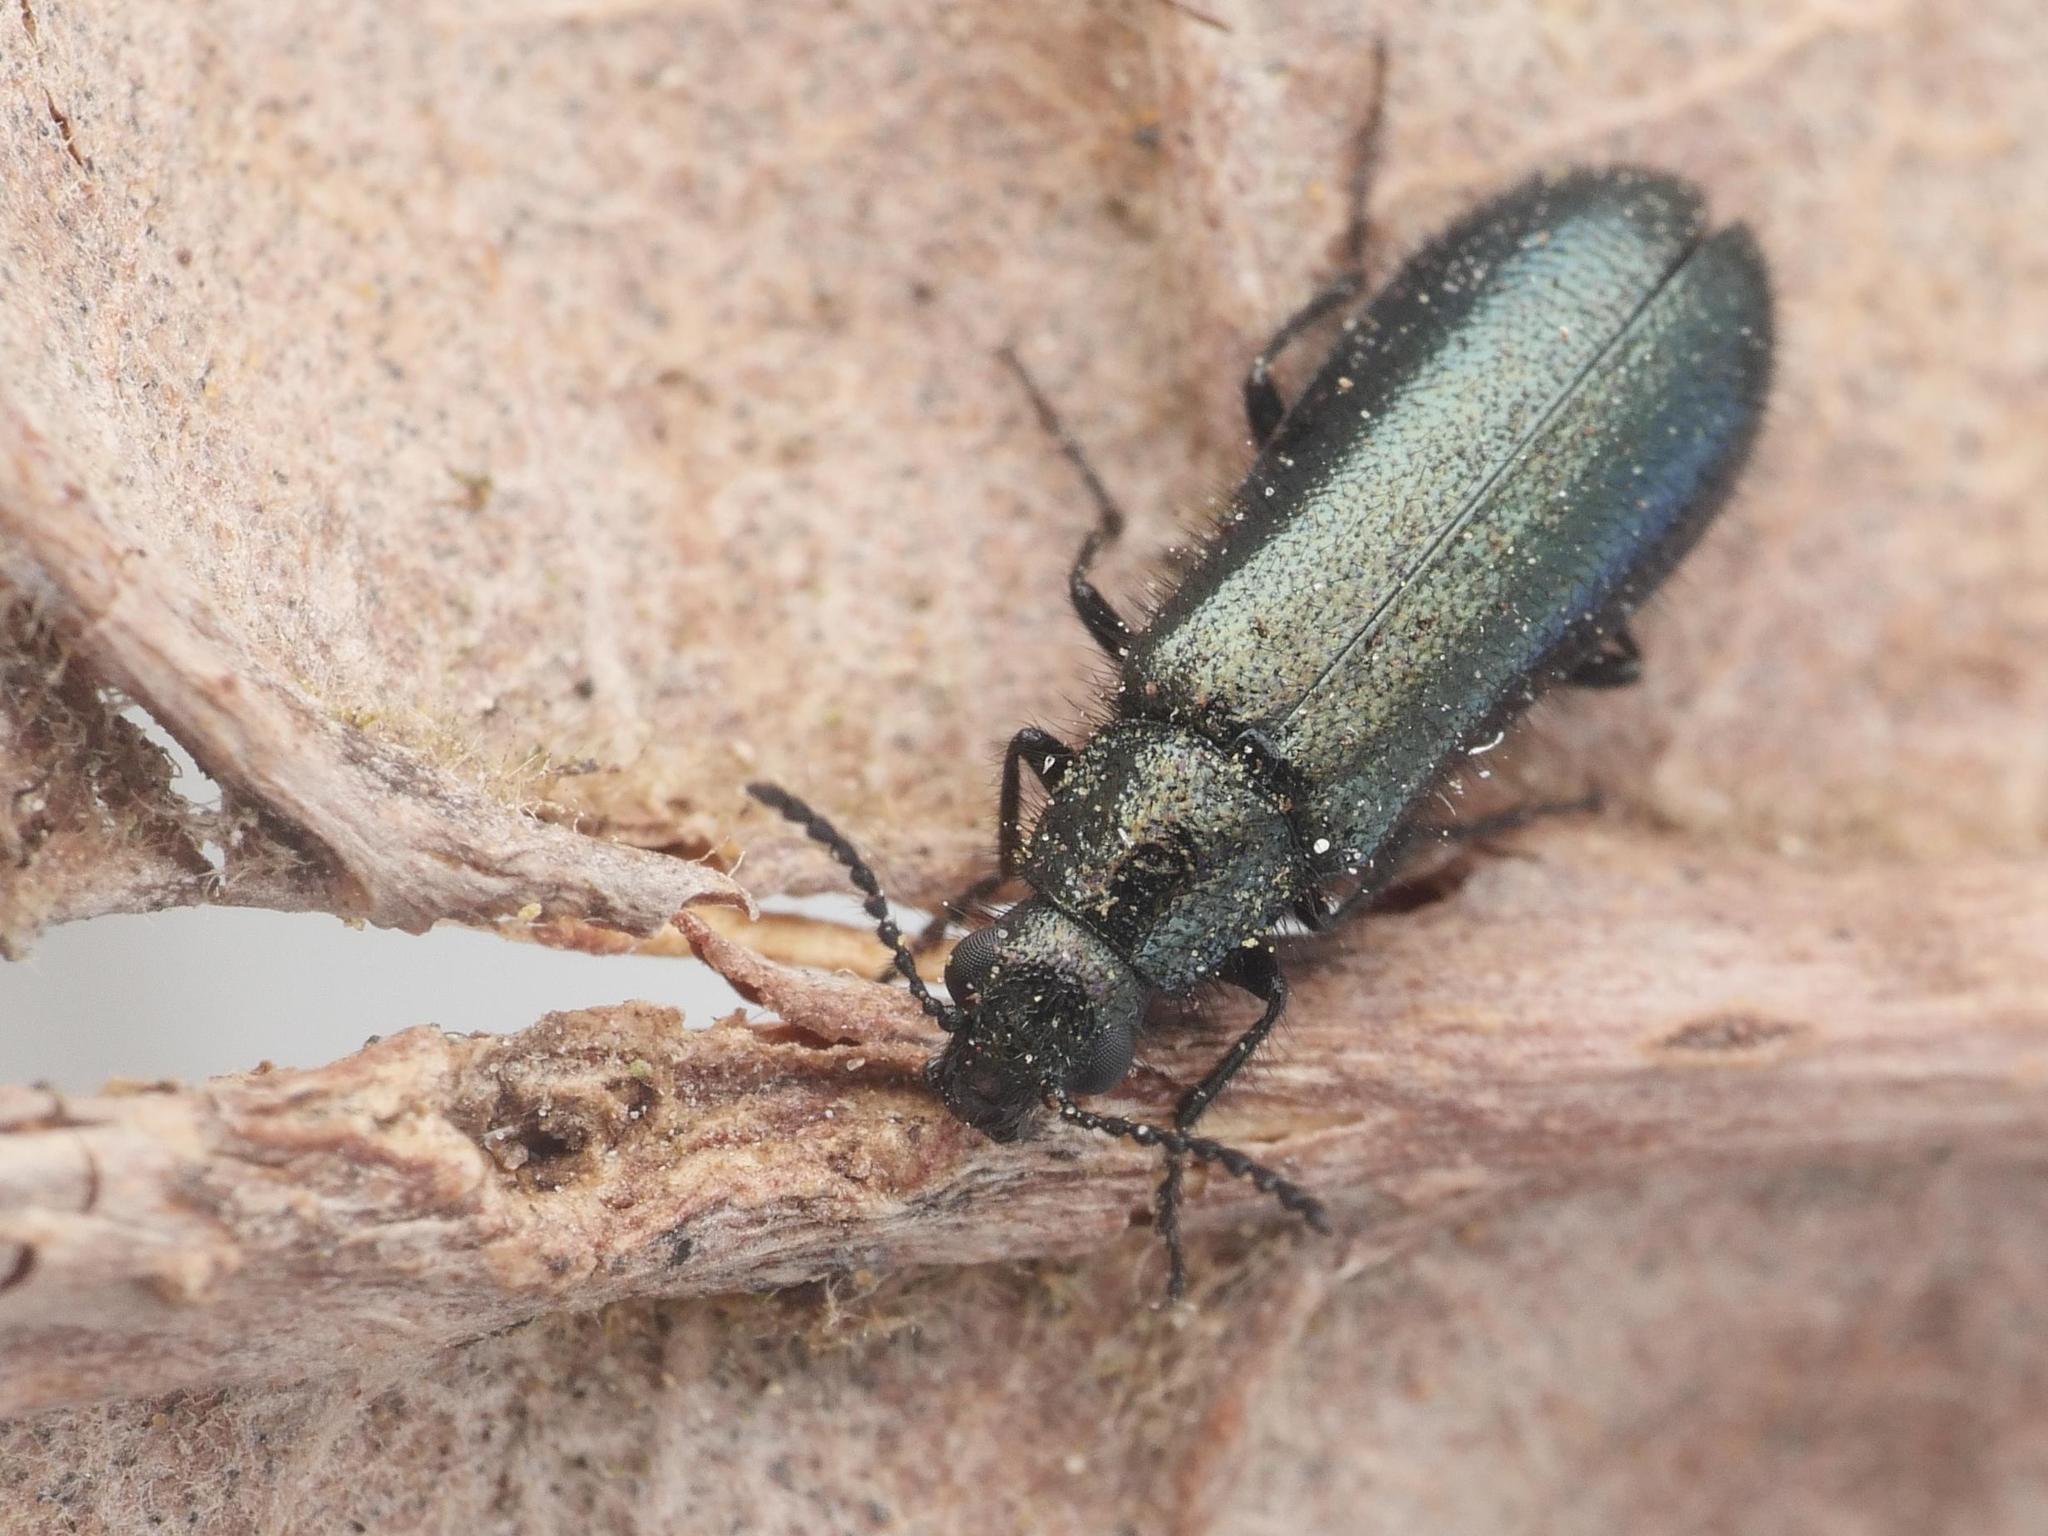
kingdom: Animalia
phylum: Arthropoda
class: Insecta
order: Coleoptera
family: Melyridae
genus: Dasytes
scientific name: Dasytes caeruleus
